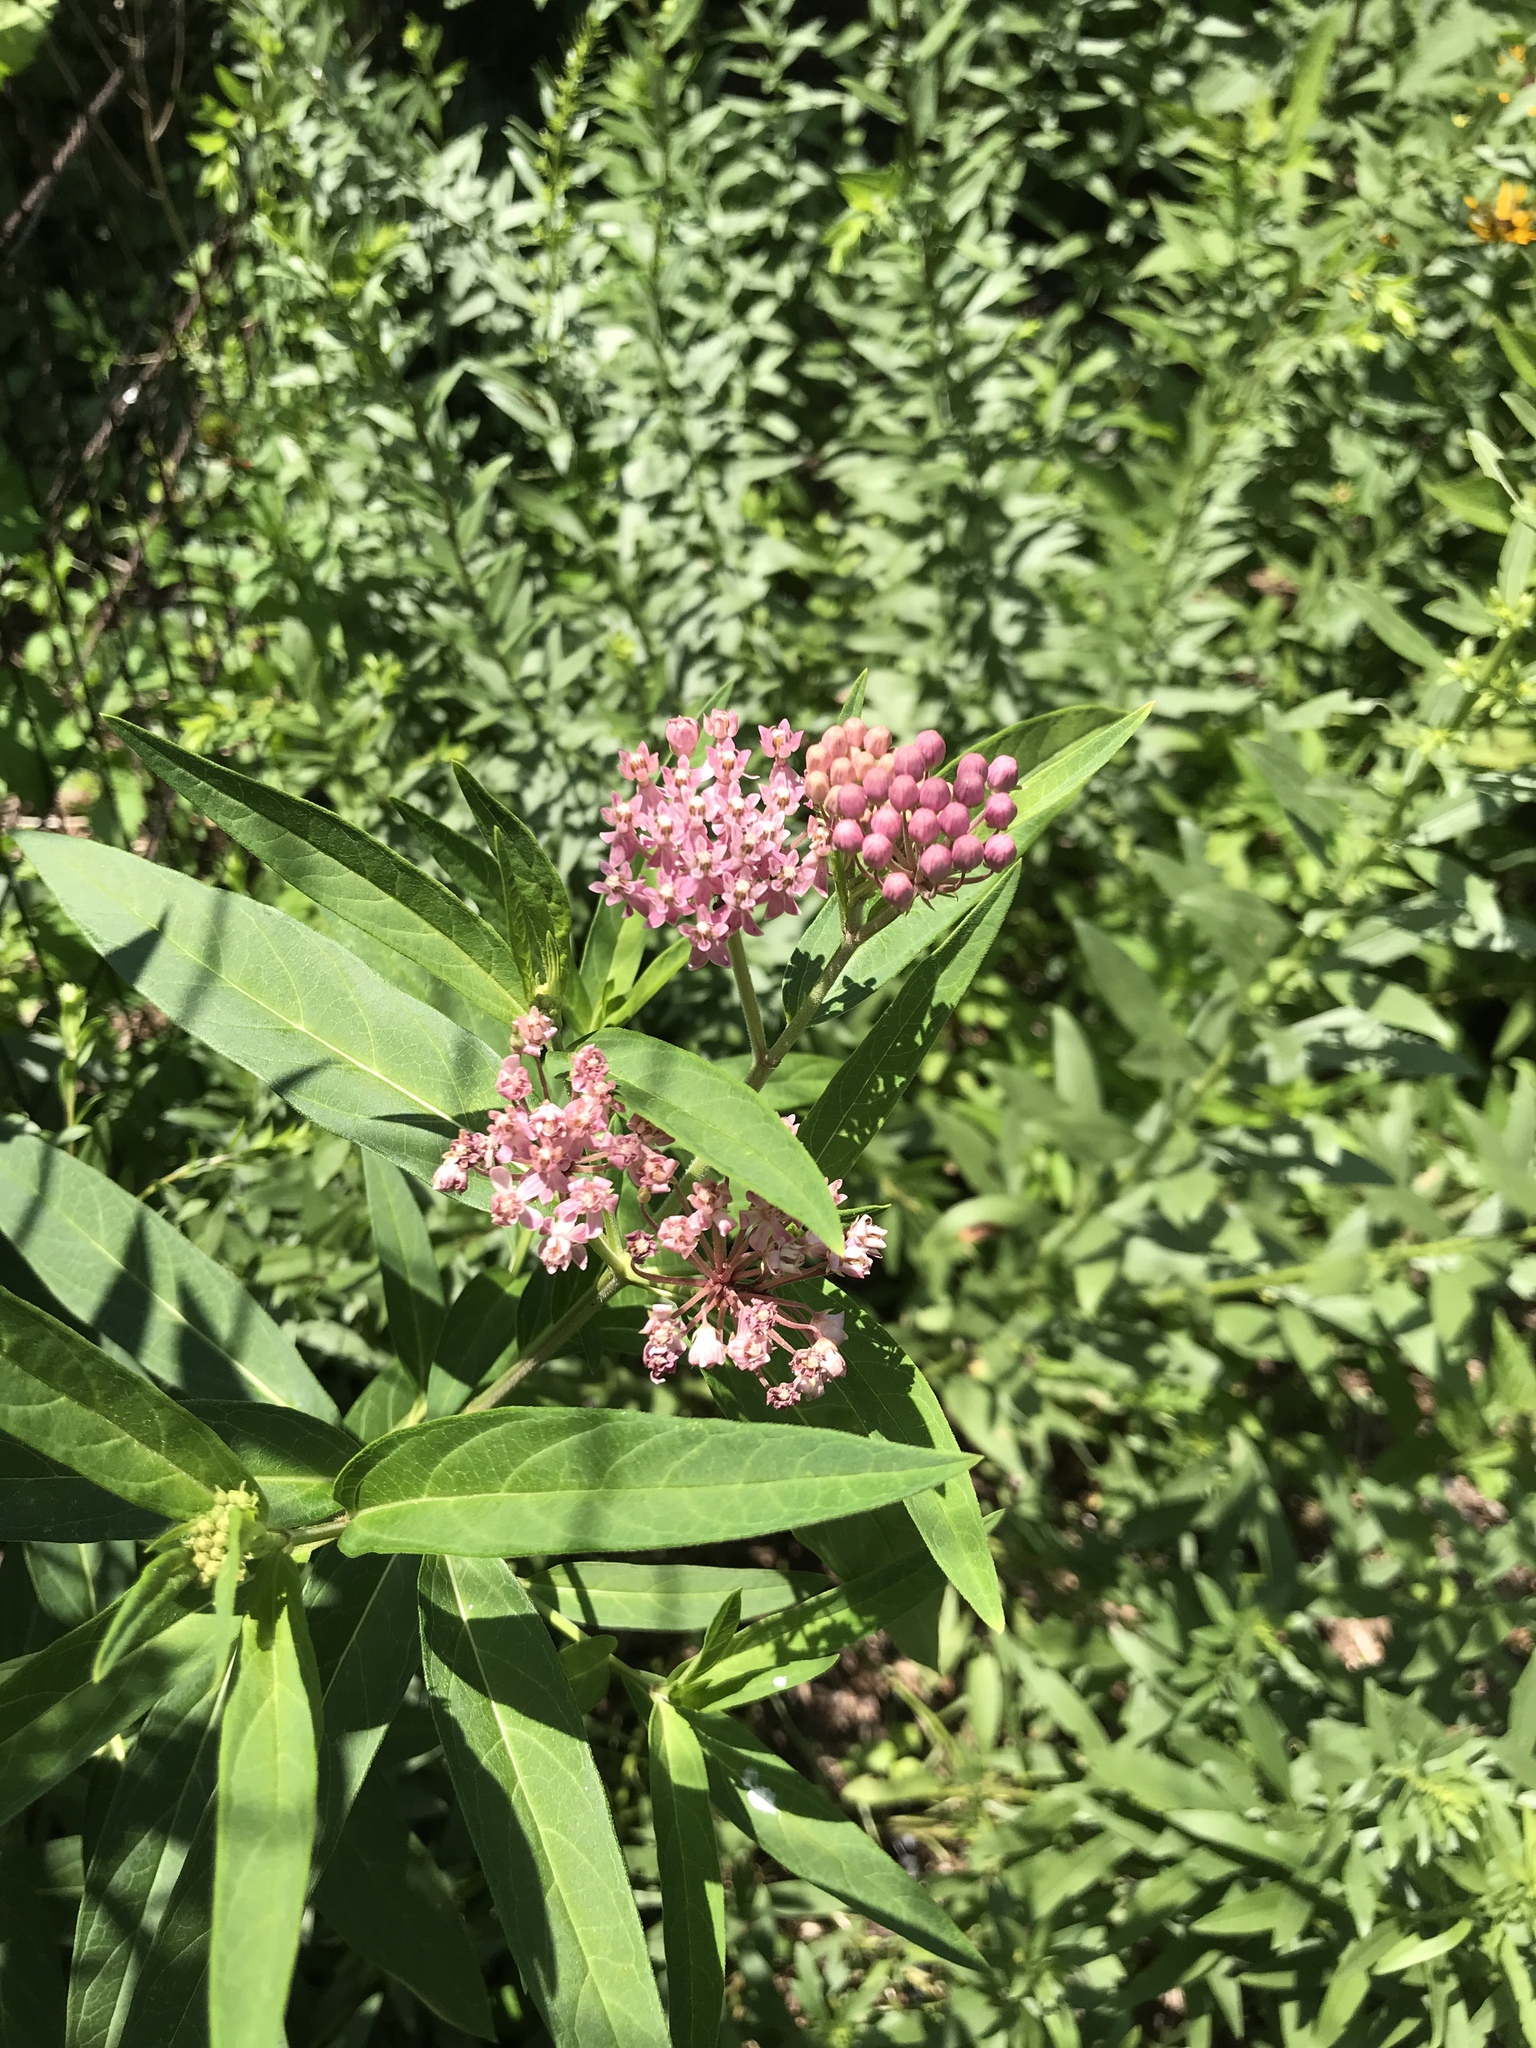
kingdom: Plantae
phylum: Tracheophyta
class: Magnoliopsida
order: Gentianales
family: Apocynaceae
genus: Asclepias
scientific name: Asclepias incarnata
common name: Swamp milkweed
